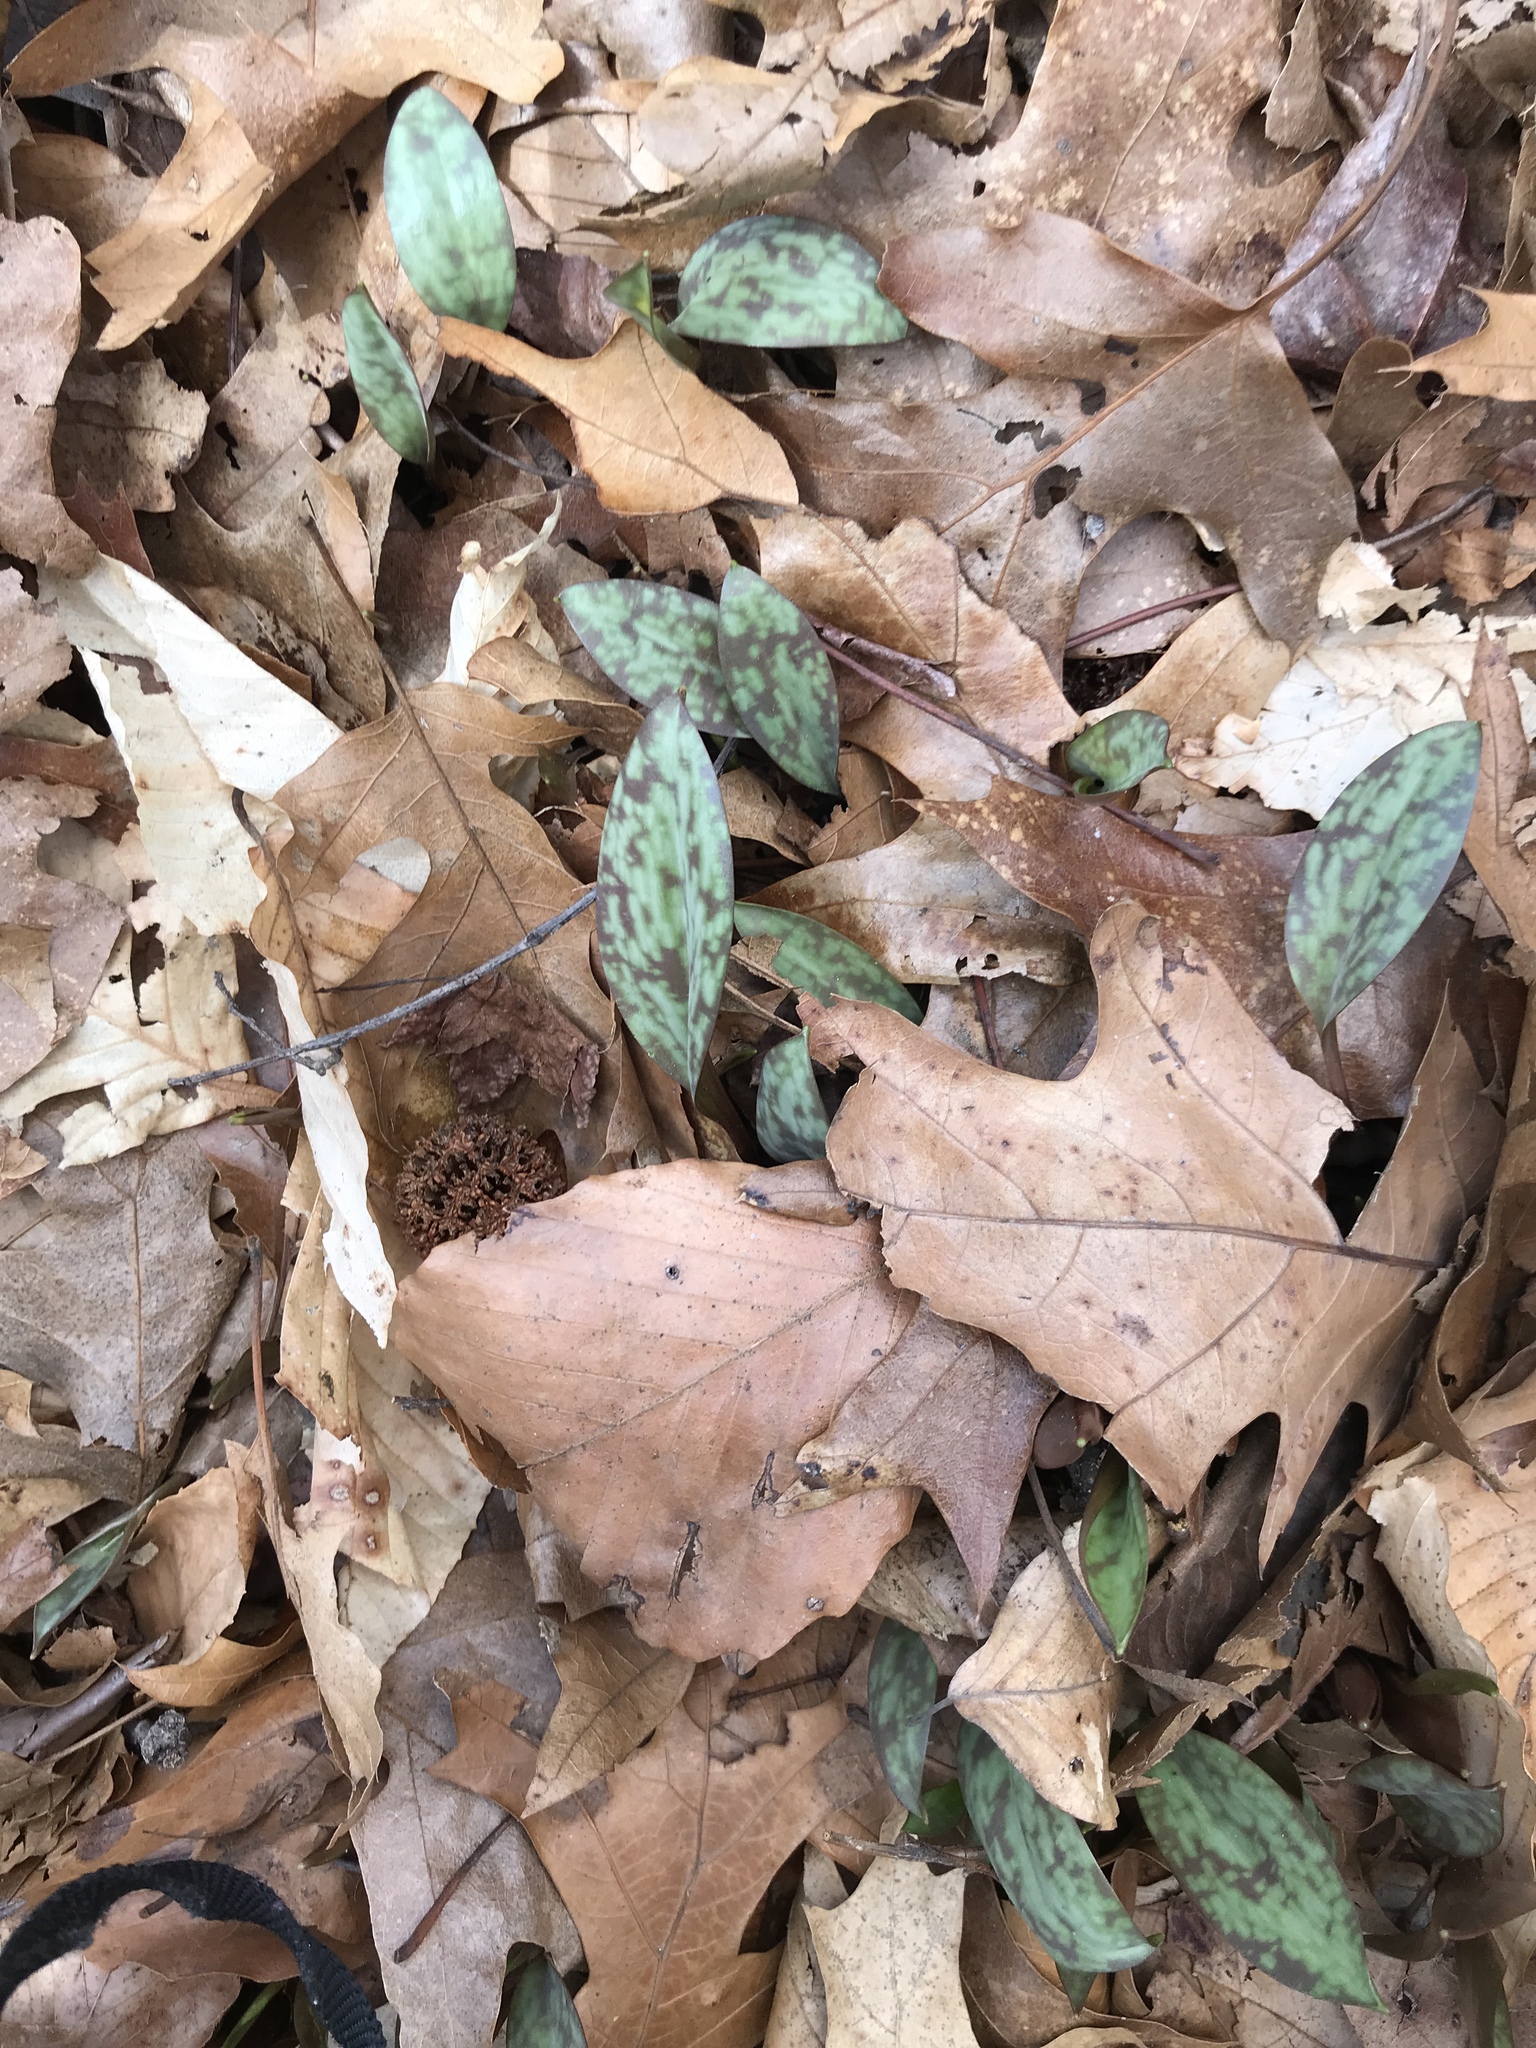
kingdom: Plantae
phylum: Tracheophyta
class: Liliopsida
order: Liliales
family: Liliaceae
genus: Erythronium
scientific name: Erythronium americanum
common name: Yellow adder's-tongue
